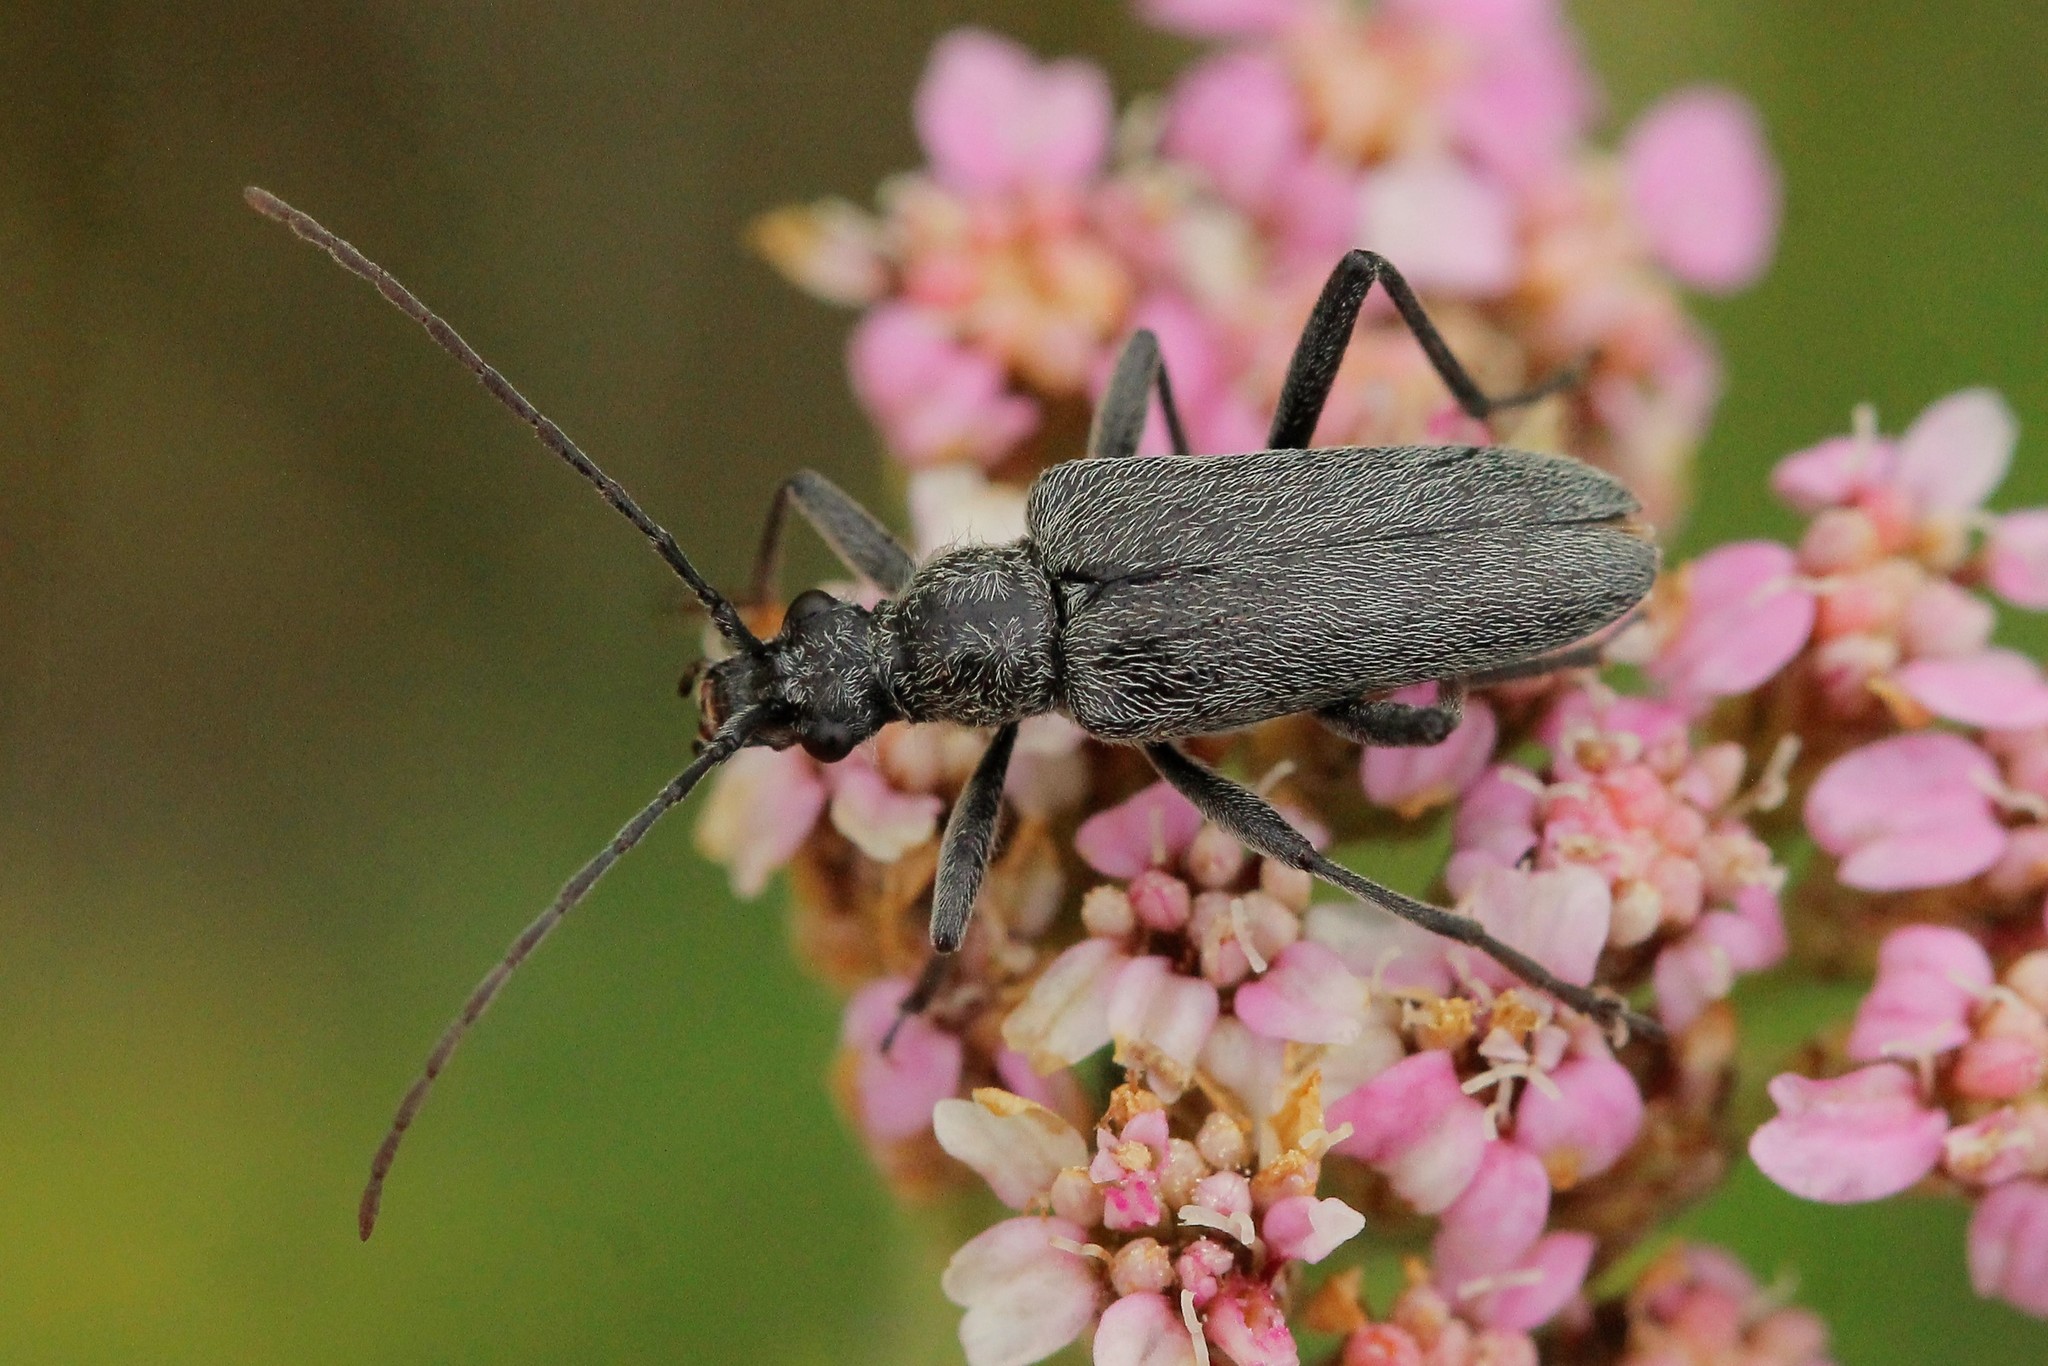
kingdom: Animalia
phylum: Arthropoda
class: Insecta
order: Coleoptera
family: Cerambycidae
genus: Acmaeops
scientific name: Acmaeops smaragdulus
